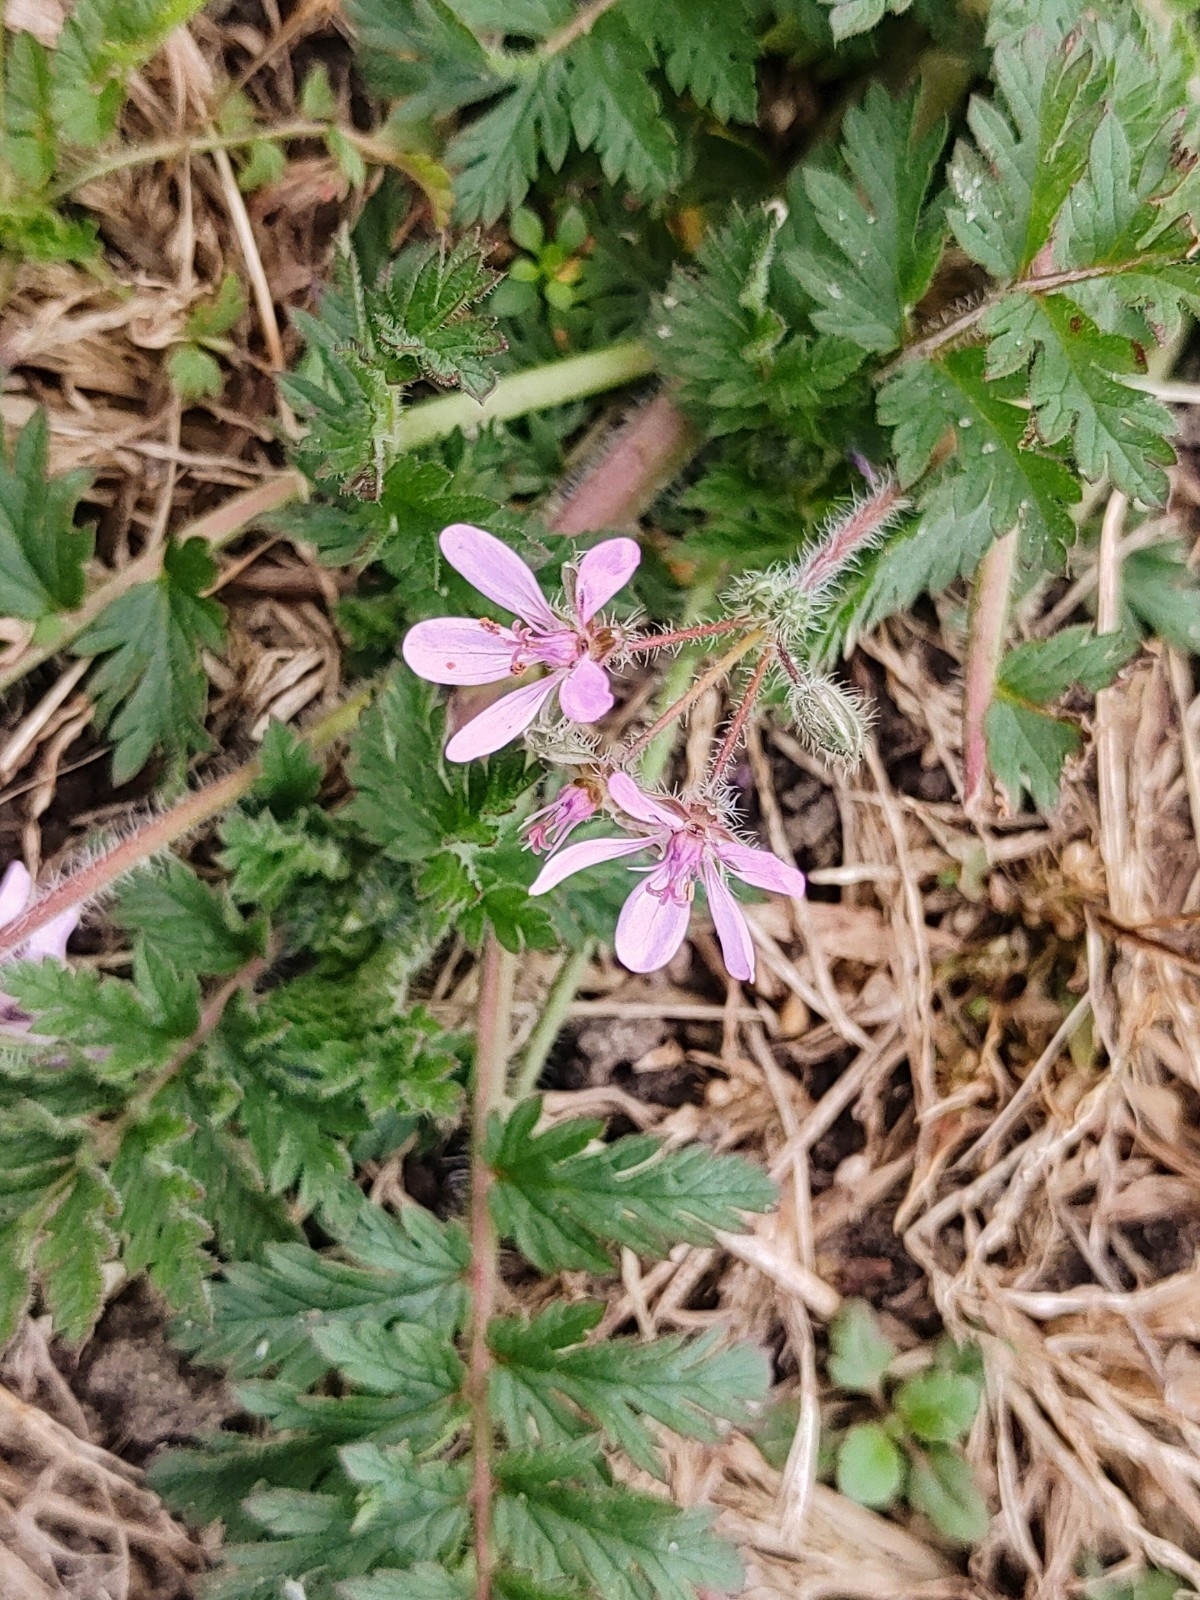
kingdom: Plantae
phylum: Tracheophyta
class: Magnoliopsida
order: Geraniales
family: Geraniaceae
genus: Erodium
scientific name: Erodium cicutarium
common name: Common stork's-bill
